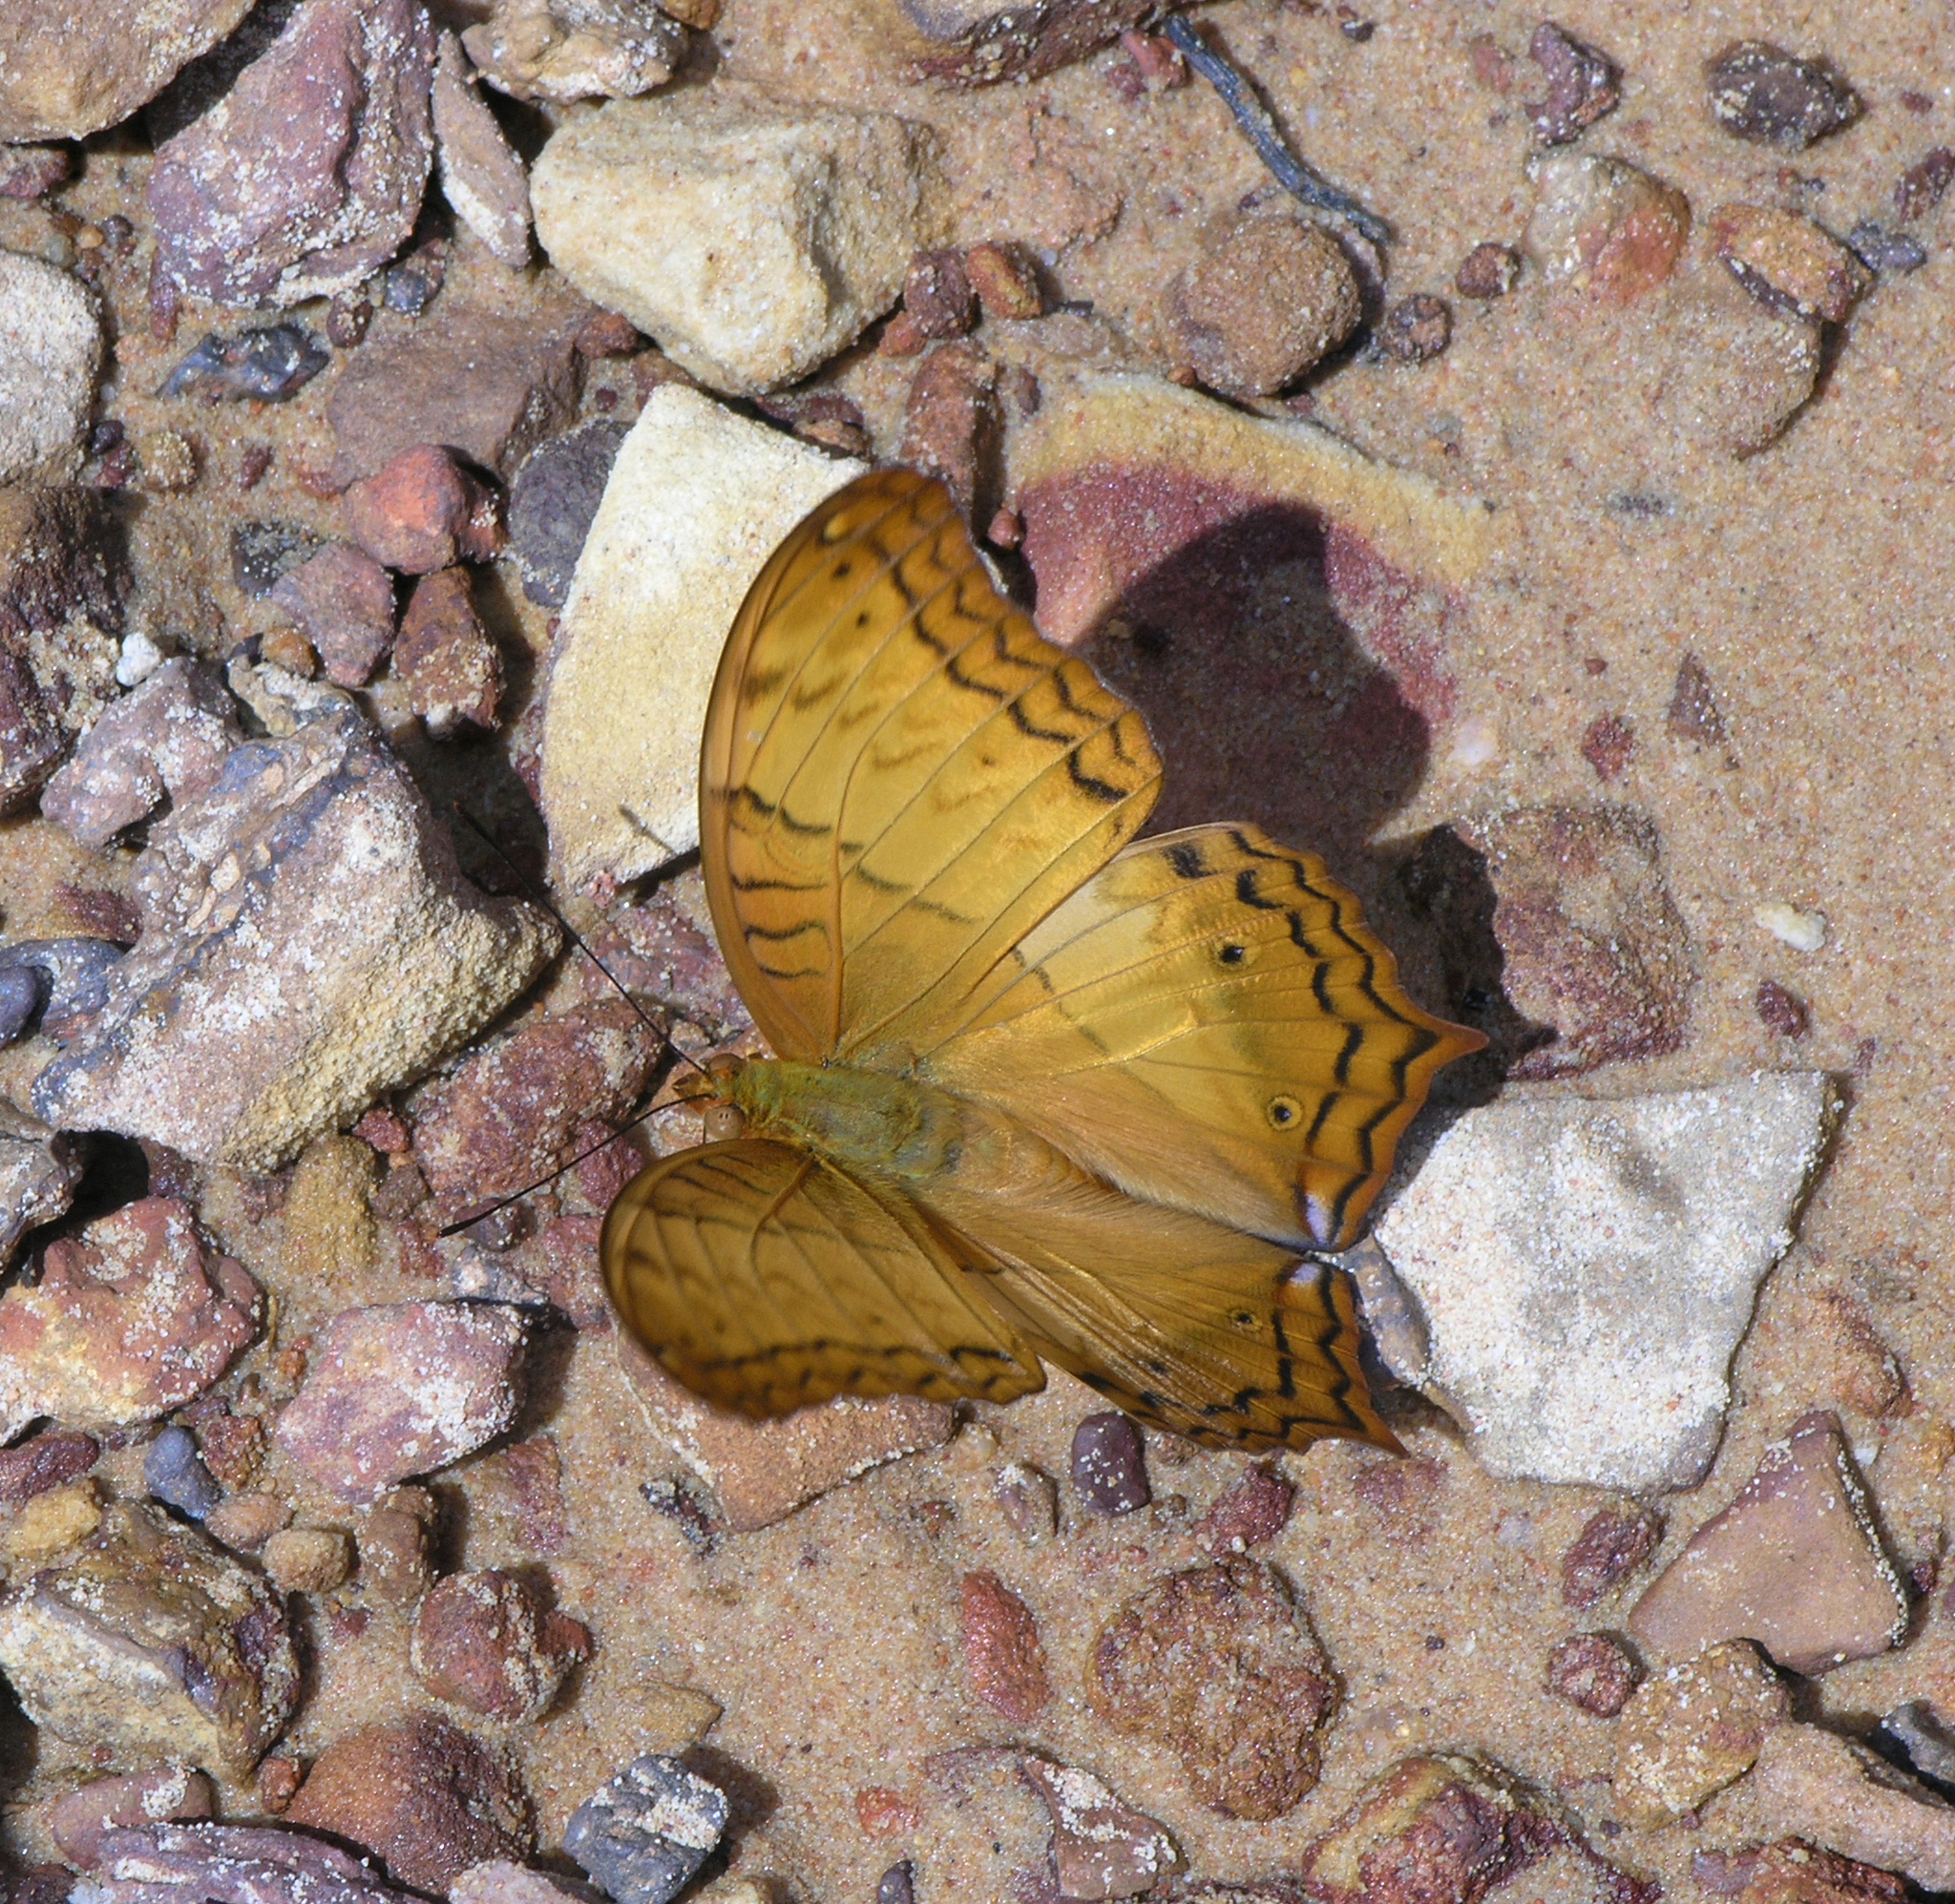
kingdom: Animalia
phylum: Arthropoda
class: Insecta
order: Lepidoptera
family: Nymphalidae
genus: Vindula
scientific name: Vindula erota
